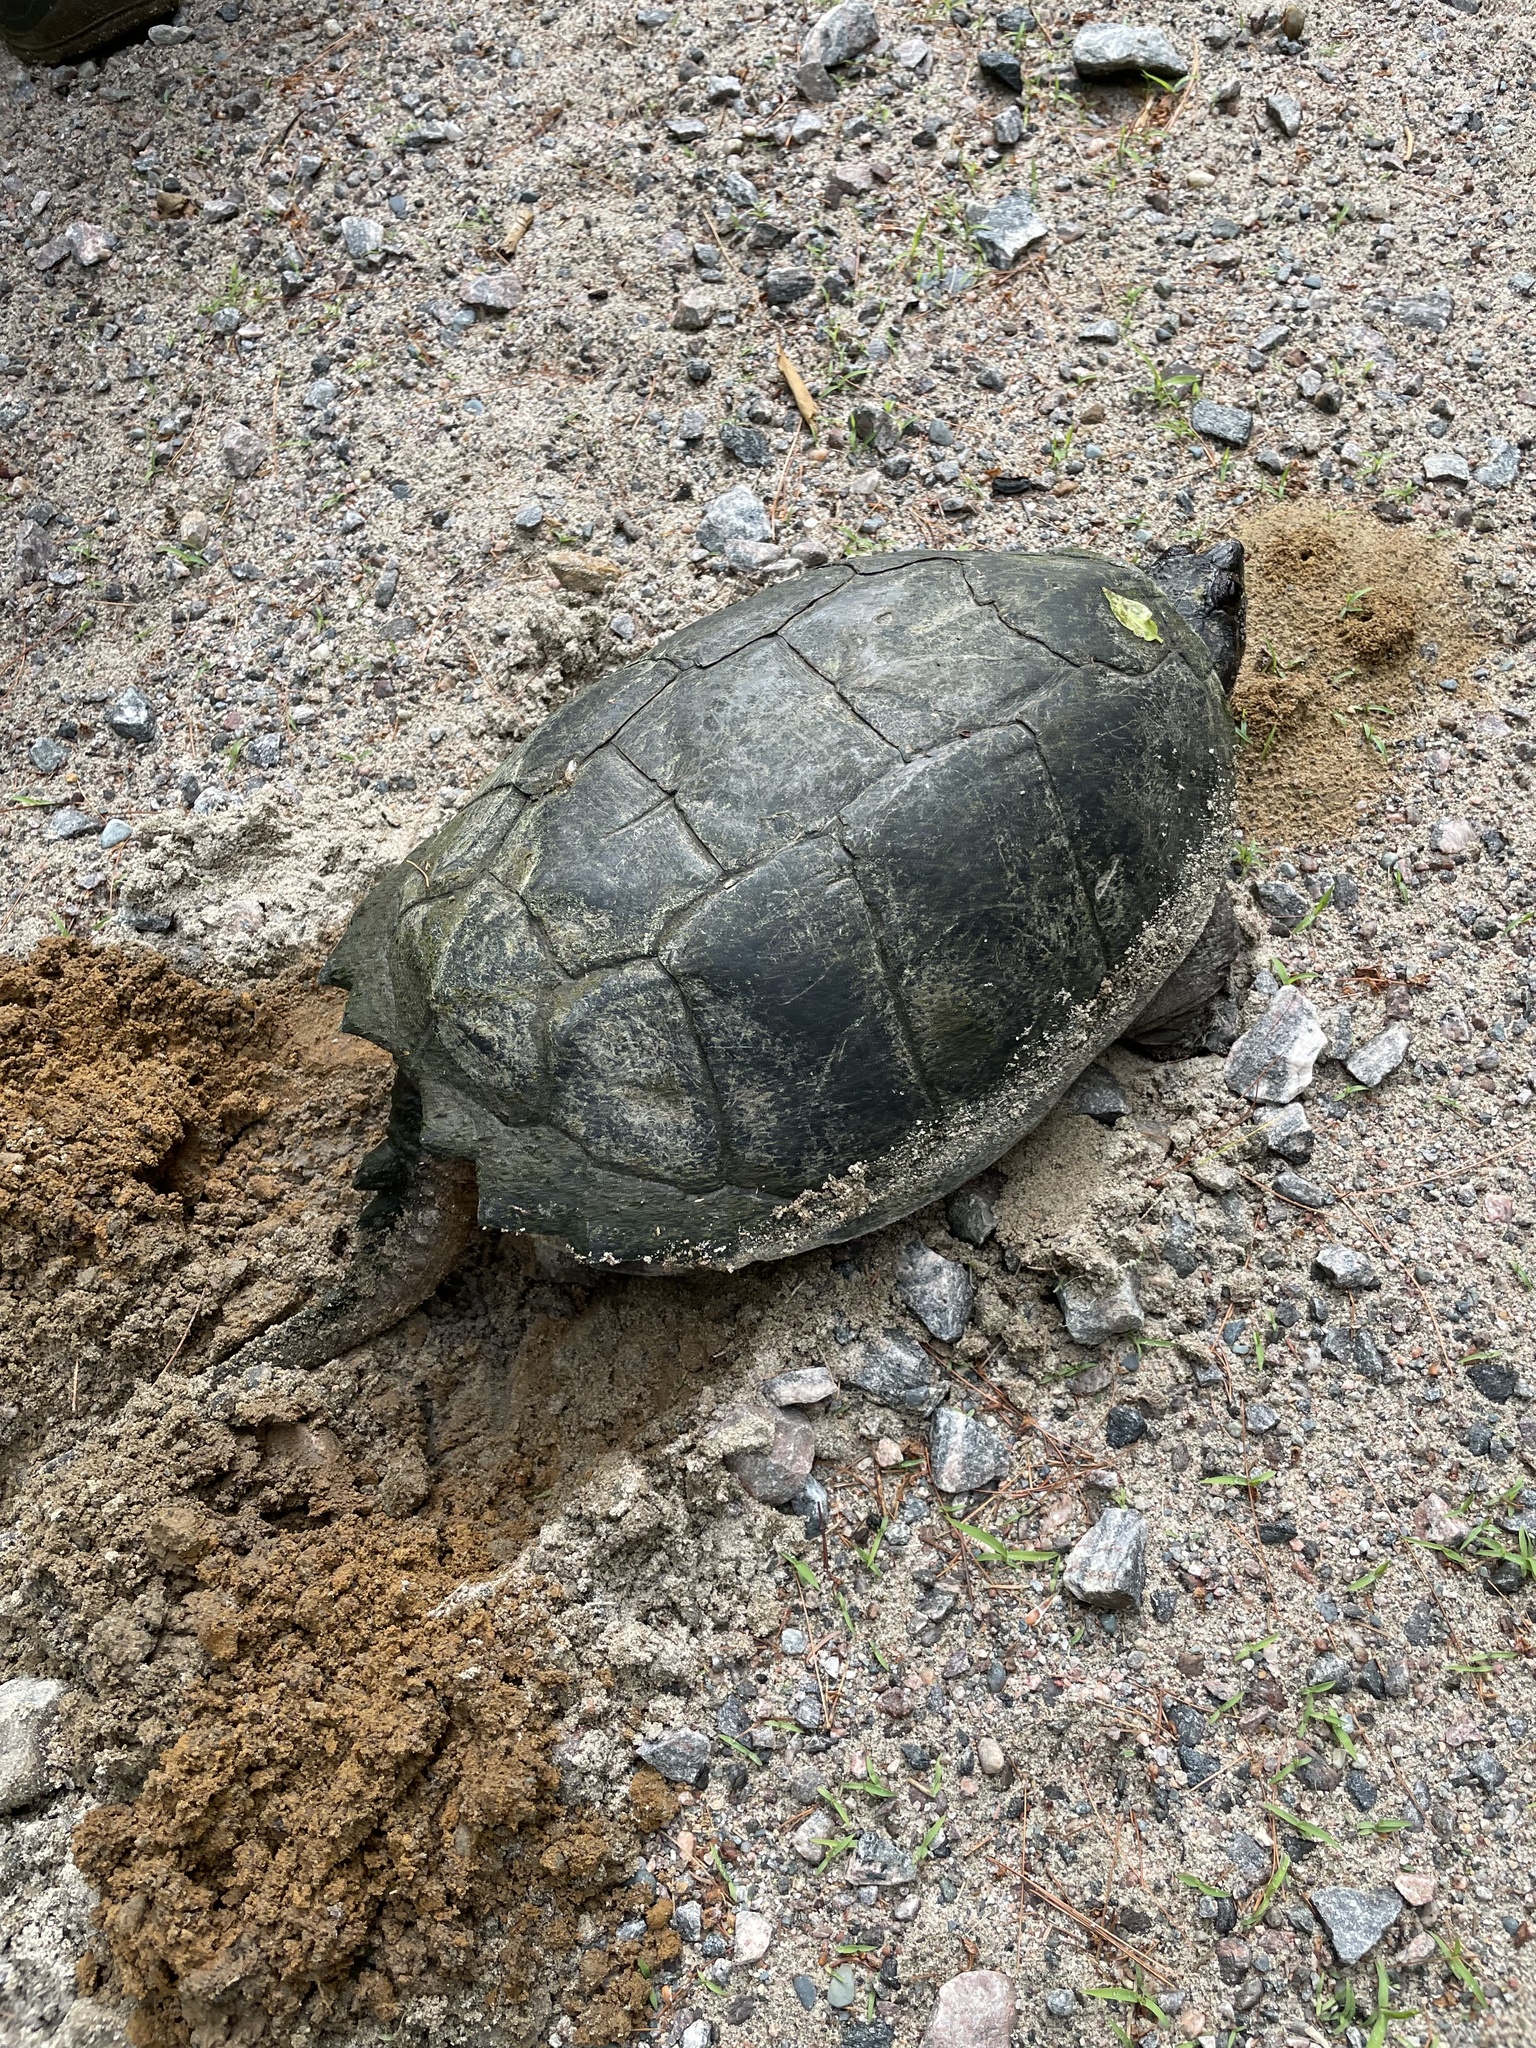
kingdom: Animalia
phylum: Chordata
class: Testudines
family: Chelydridae
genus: Chelydra
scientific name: Chelydra serpentina
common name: Common snapping turtle
